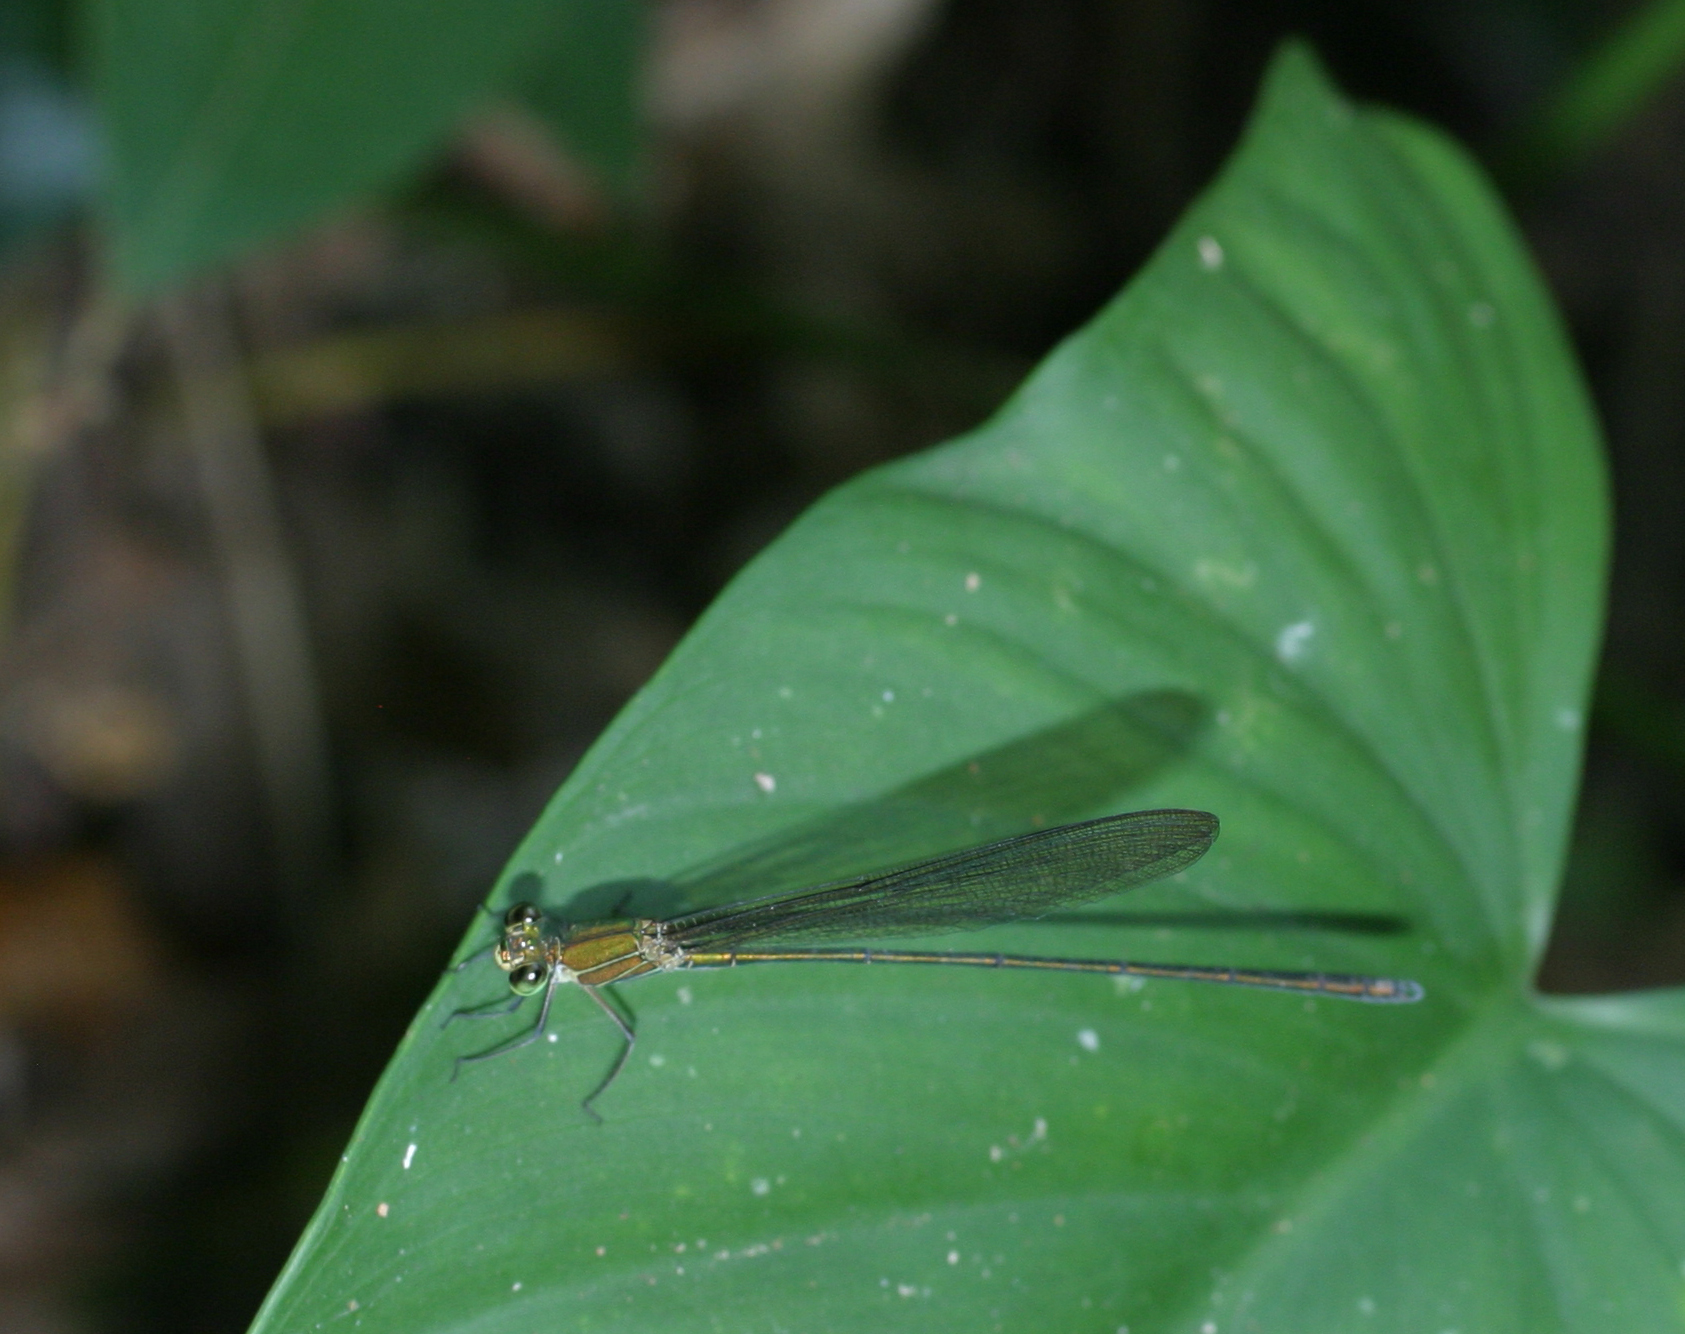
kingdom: Animalia
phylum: Arthropoda
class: Insecta
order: Odonata
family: Calopterygidae
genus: Vestalis
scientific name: Vestalis gracilis
